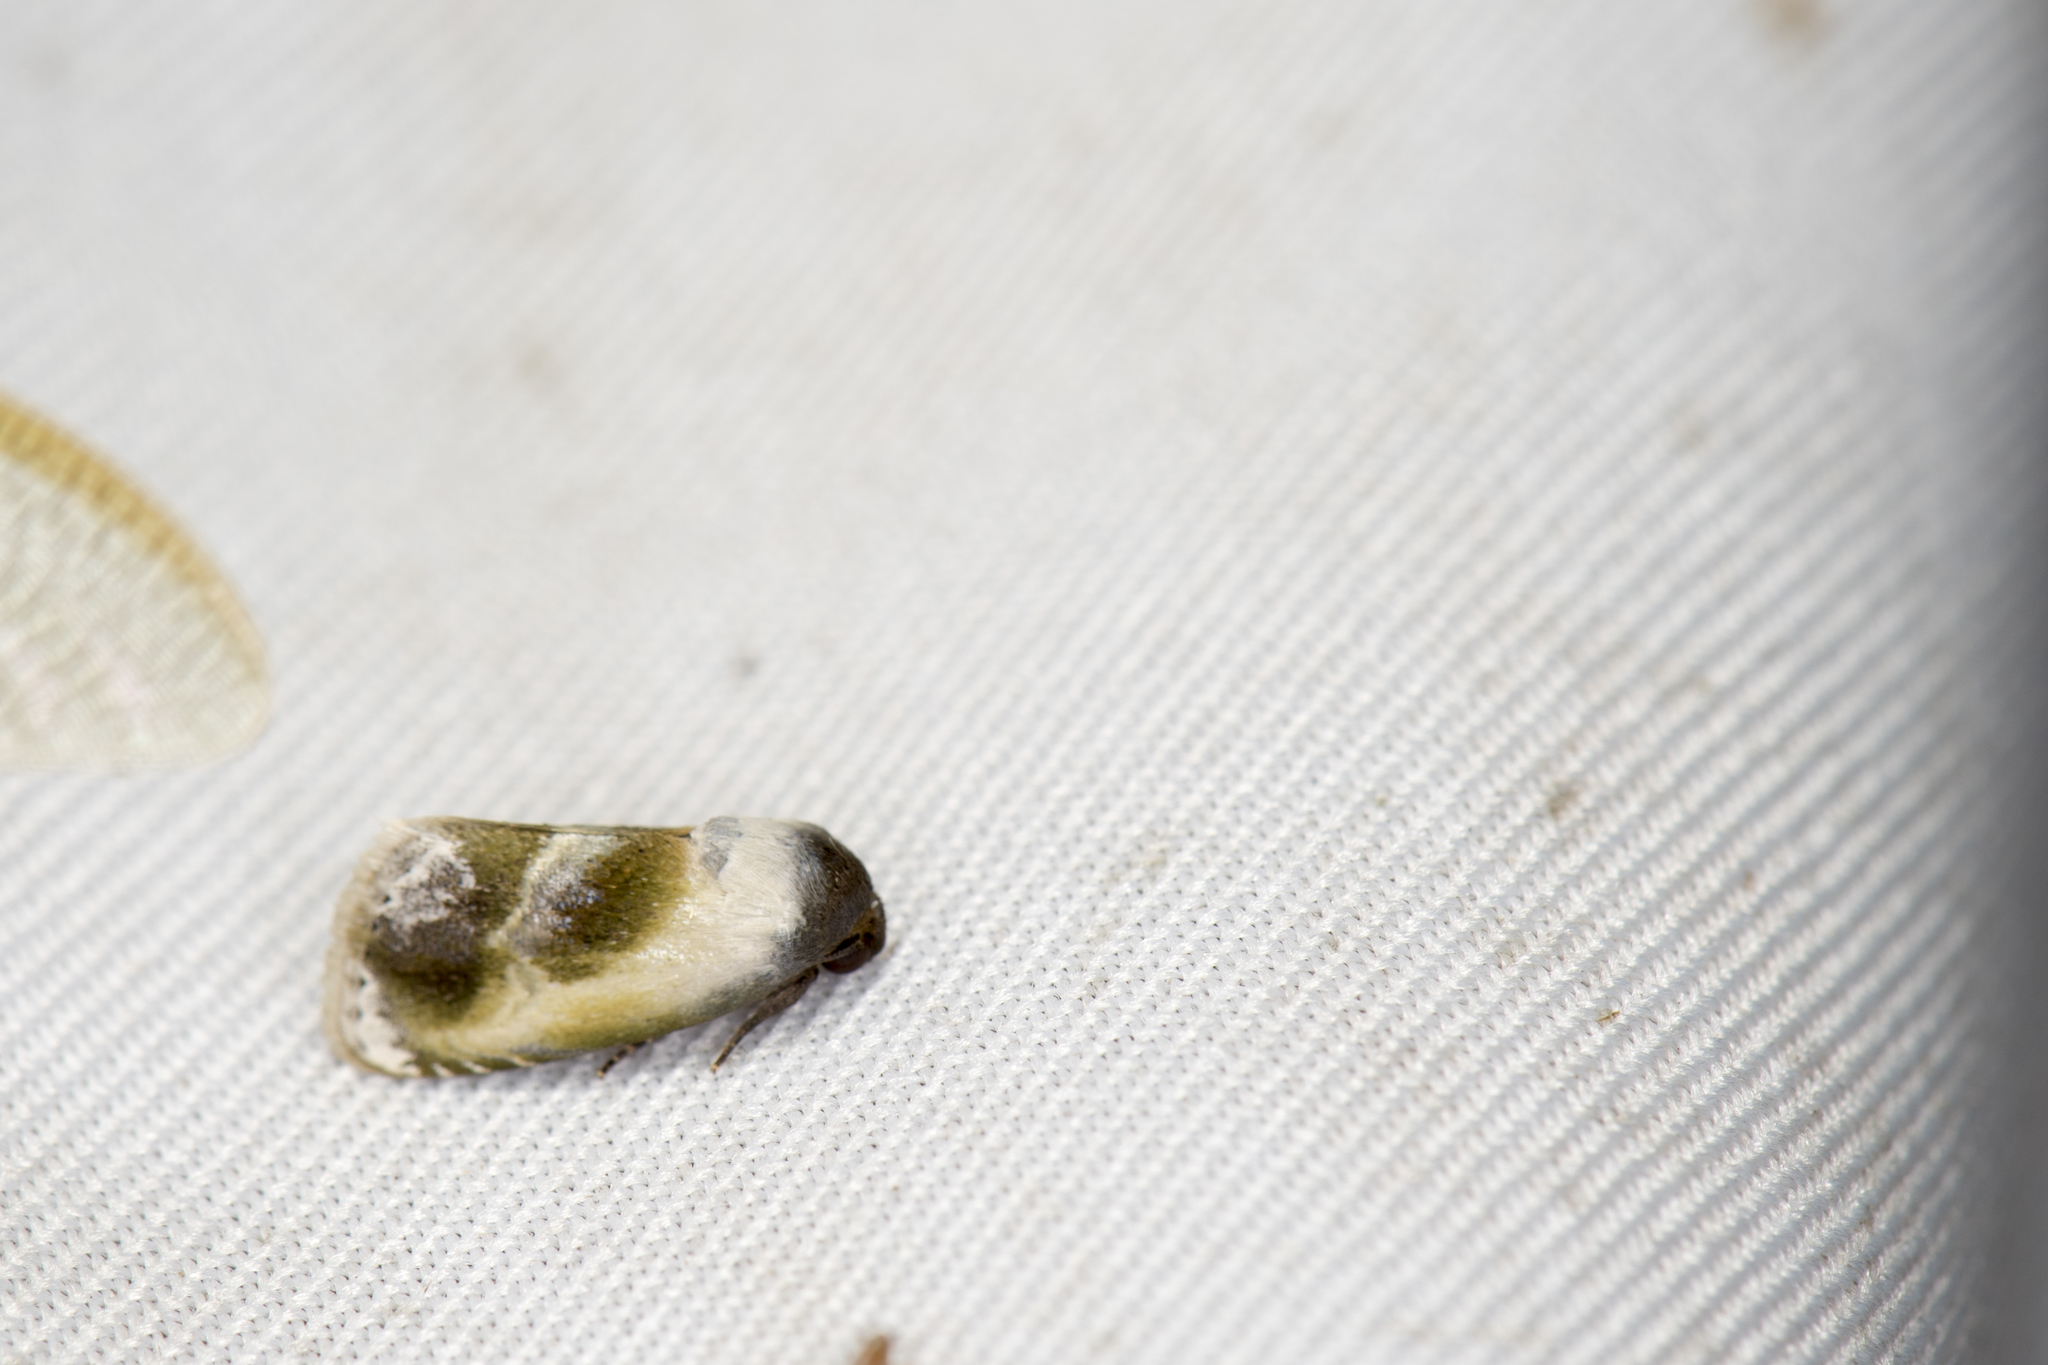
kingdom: Animalia
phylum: Arthropoda
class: Insecta
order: Lepidoptera
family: Noctuidae
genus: Acontia
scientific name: Acontia olivacea
